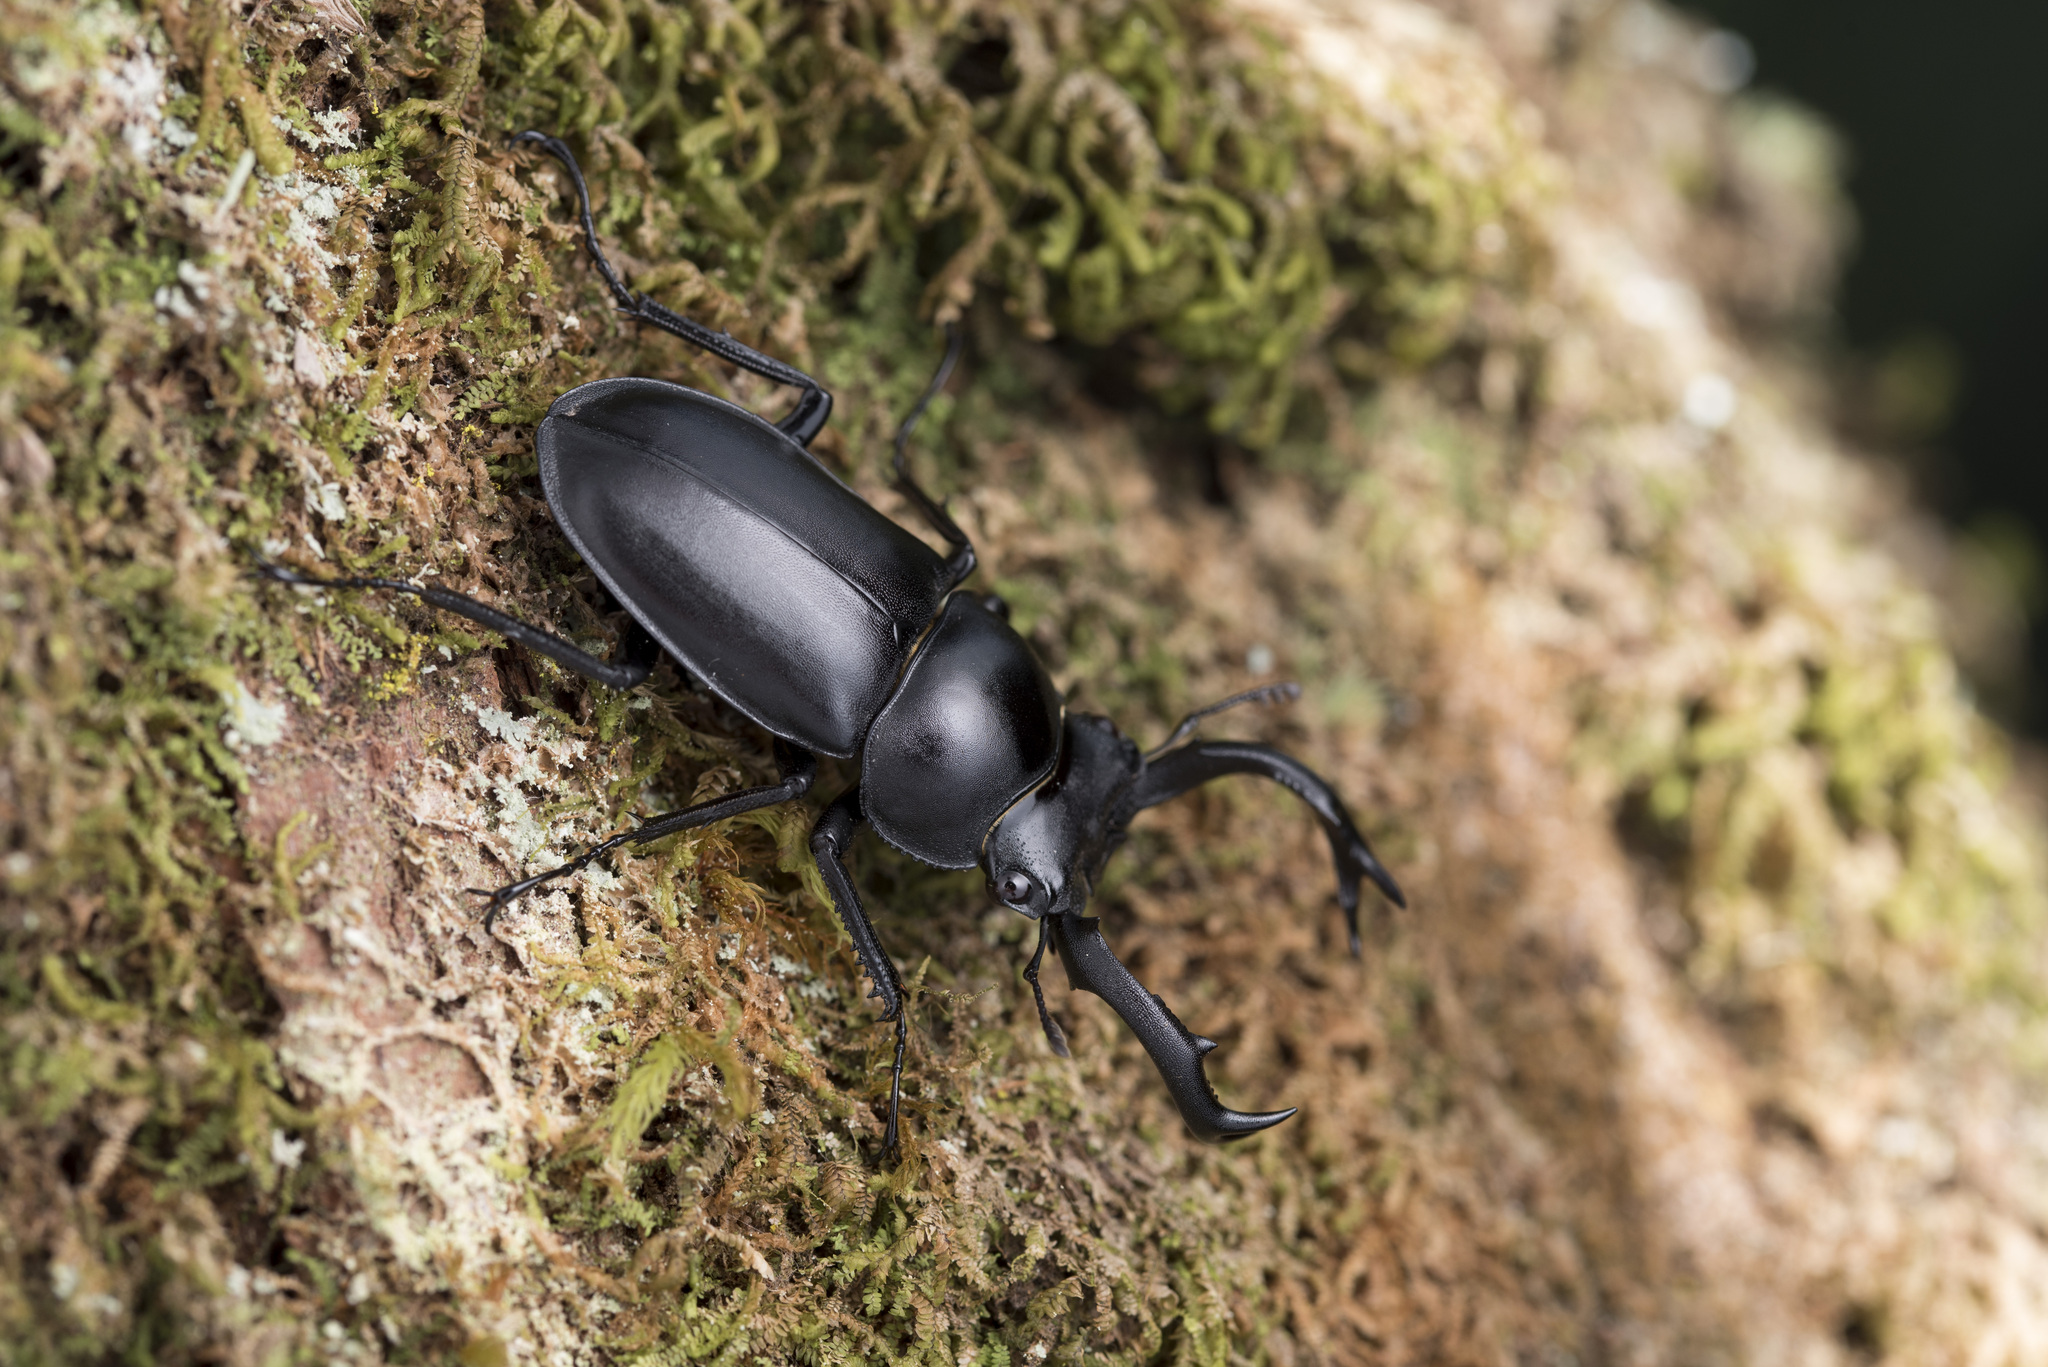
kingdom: Animalia
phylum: Arthropoda
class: Insecta
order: Coleoptera
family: Lucanidae
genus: Rhaetulus
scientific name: Rhaetulus crenatus
